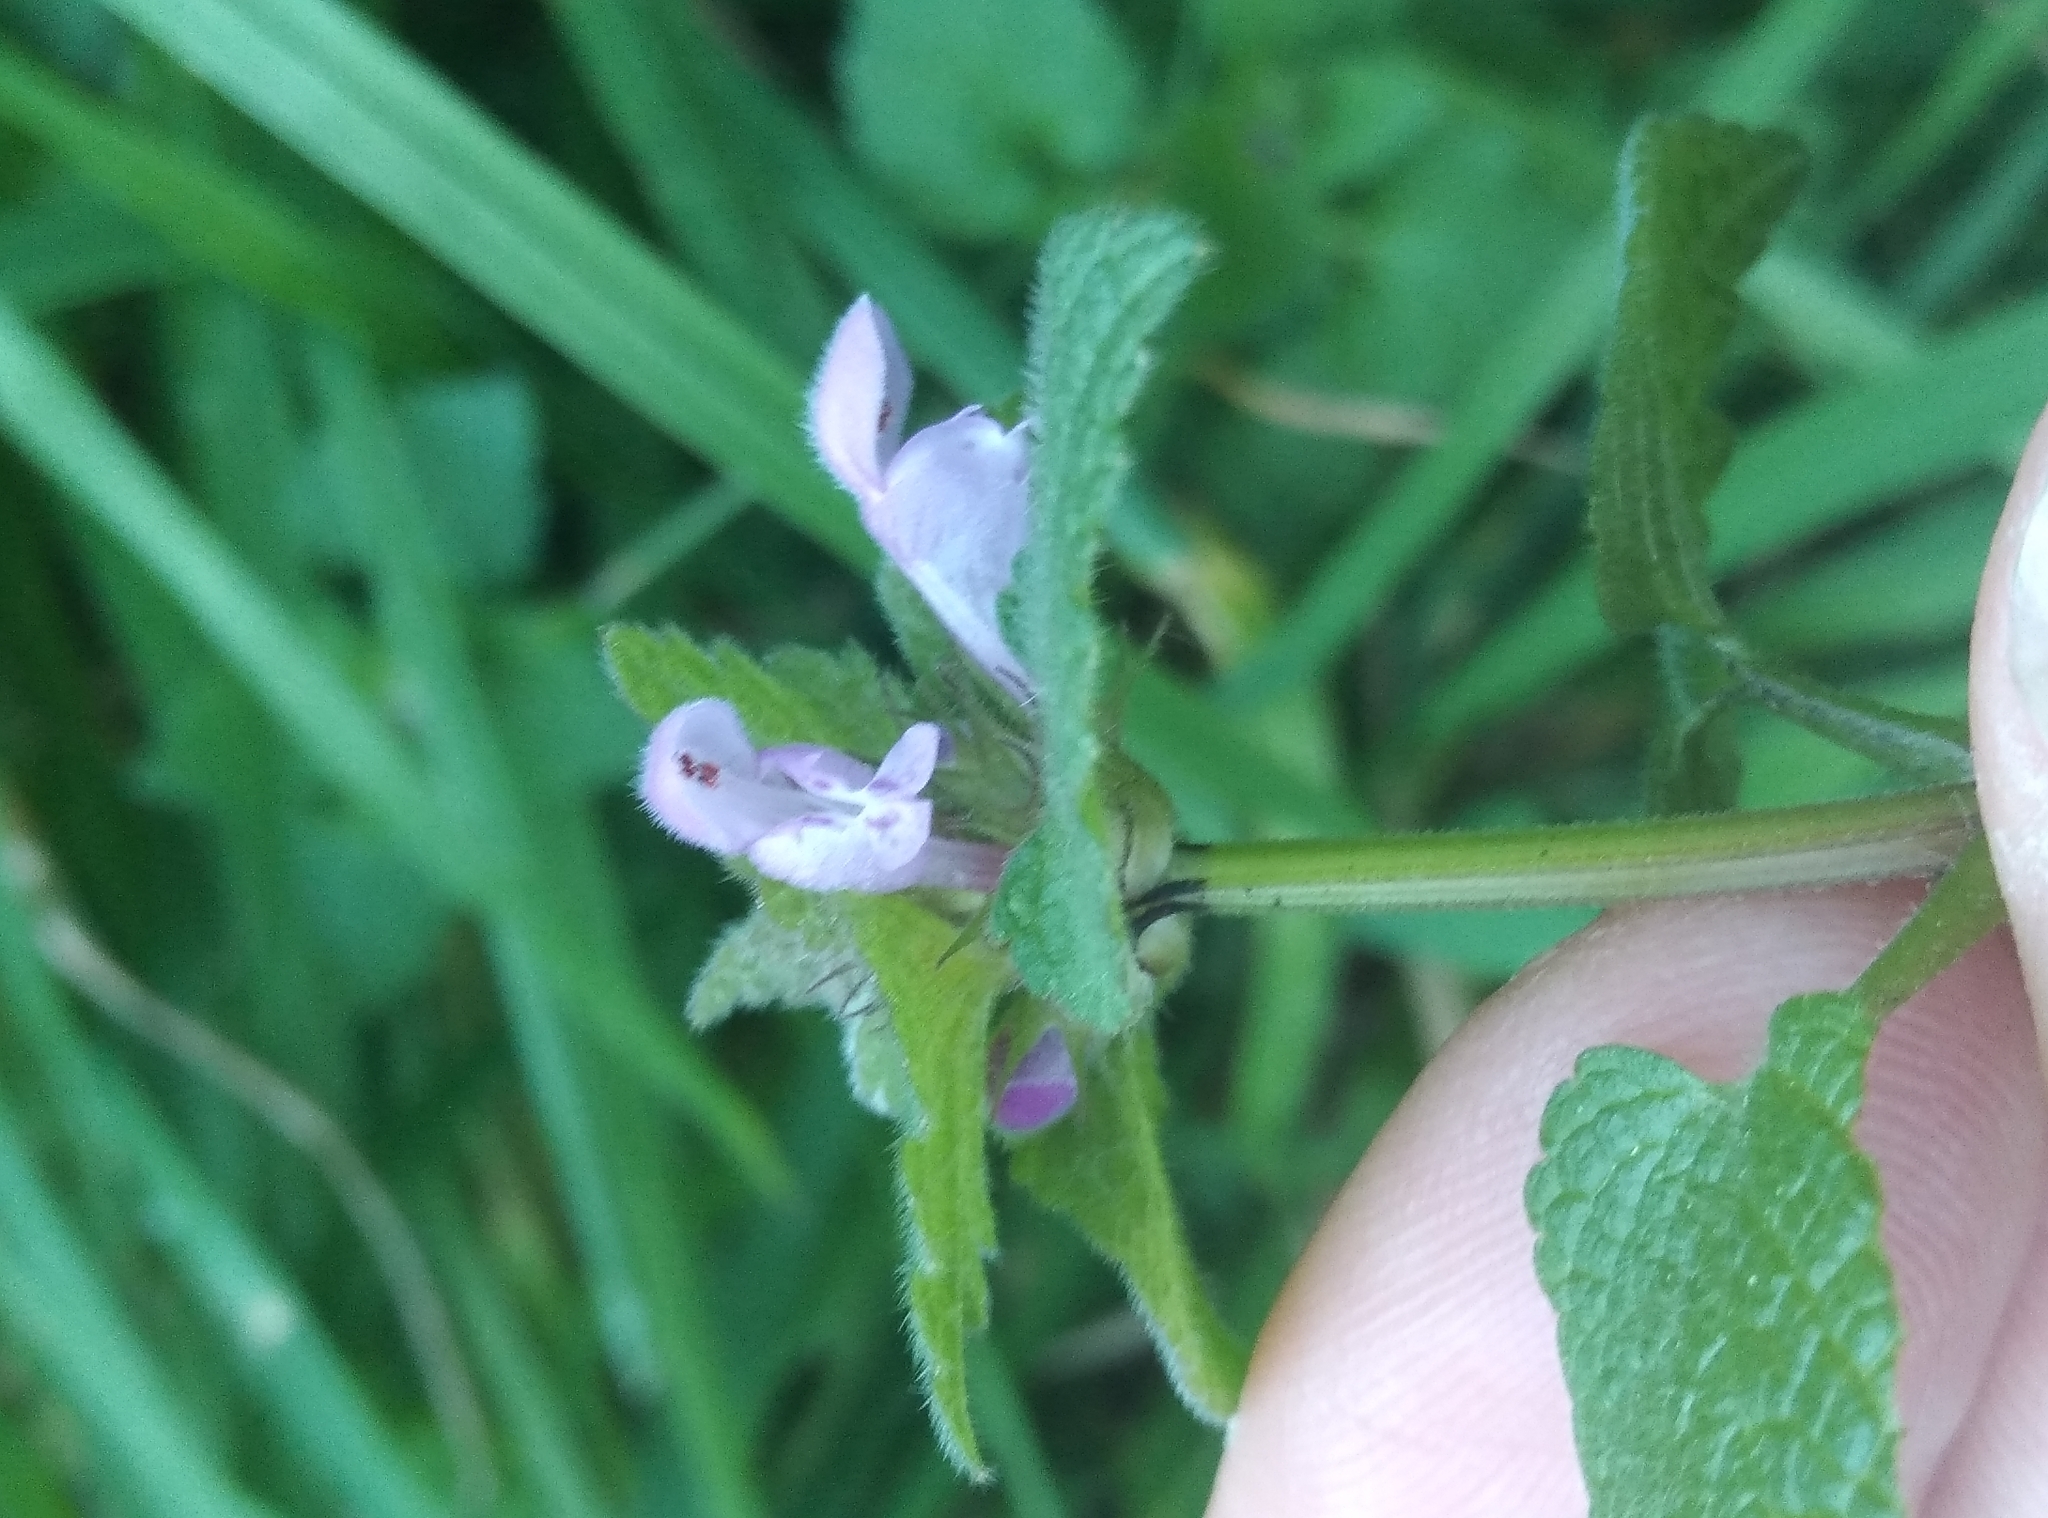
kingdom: Plantae
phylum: Tracheophyta
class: Magnoliopsida
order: Lamiales
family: Lamiaceae
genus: Lamium
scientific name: Lamium purpureum
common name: Red dead-nettle
